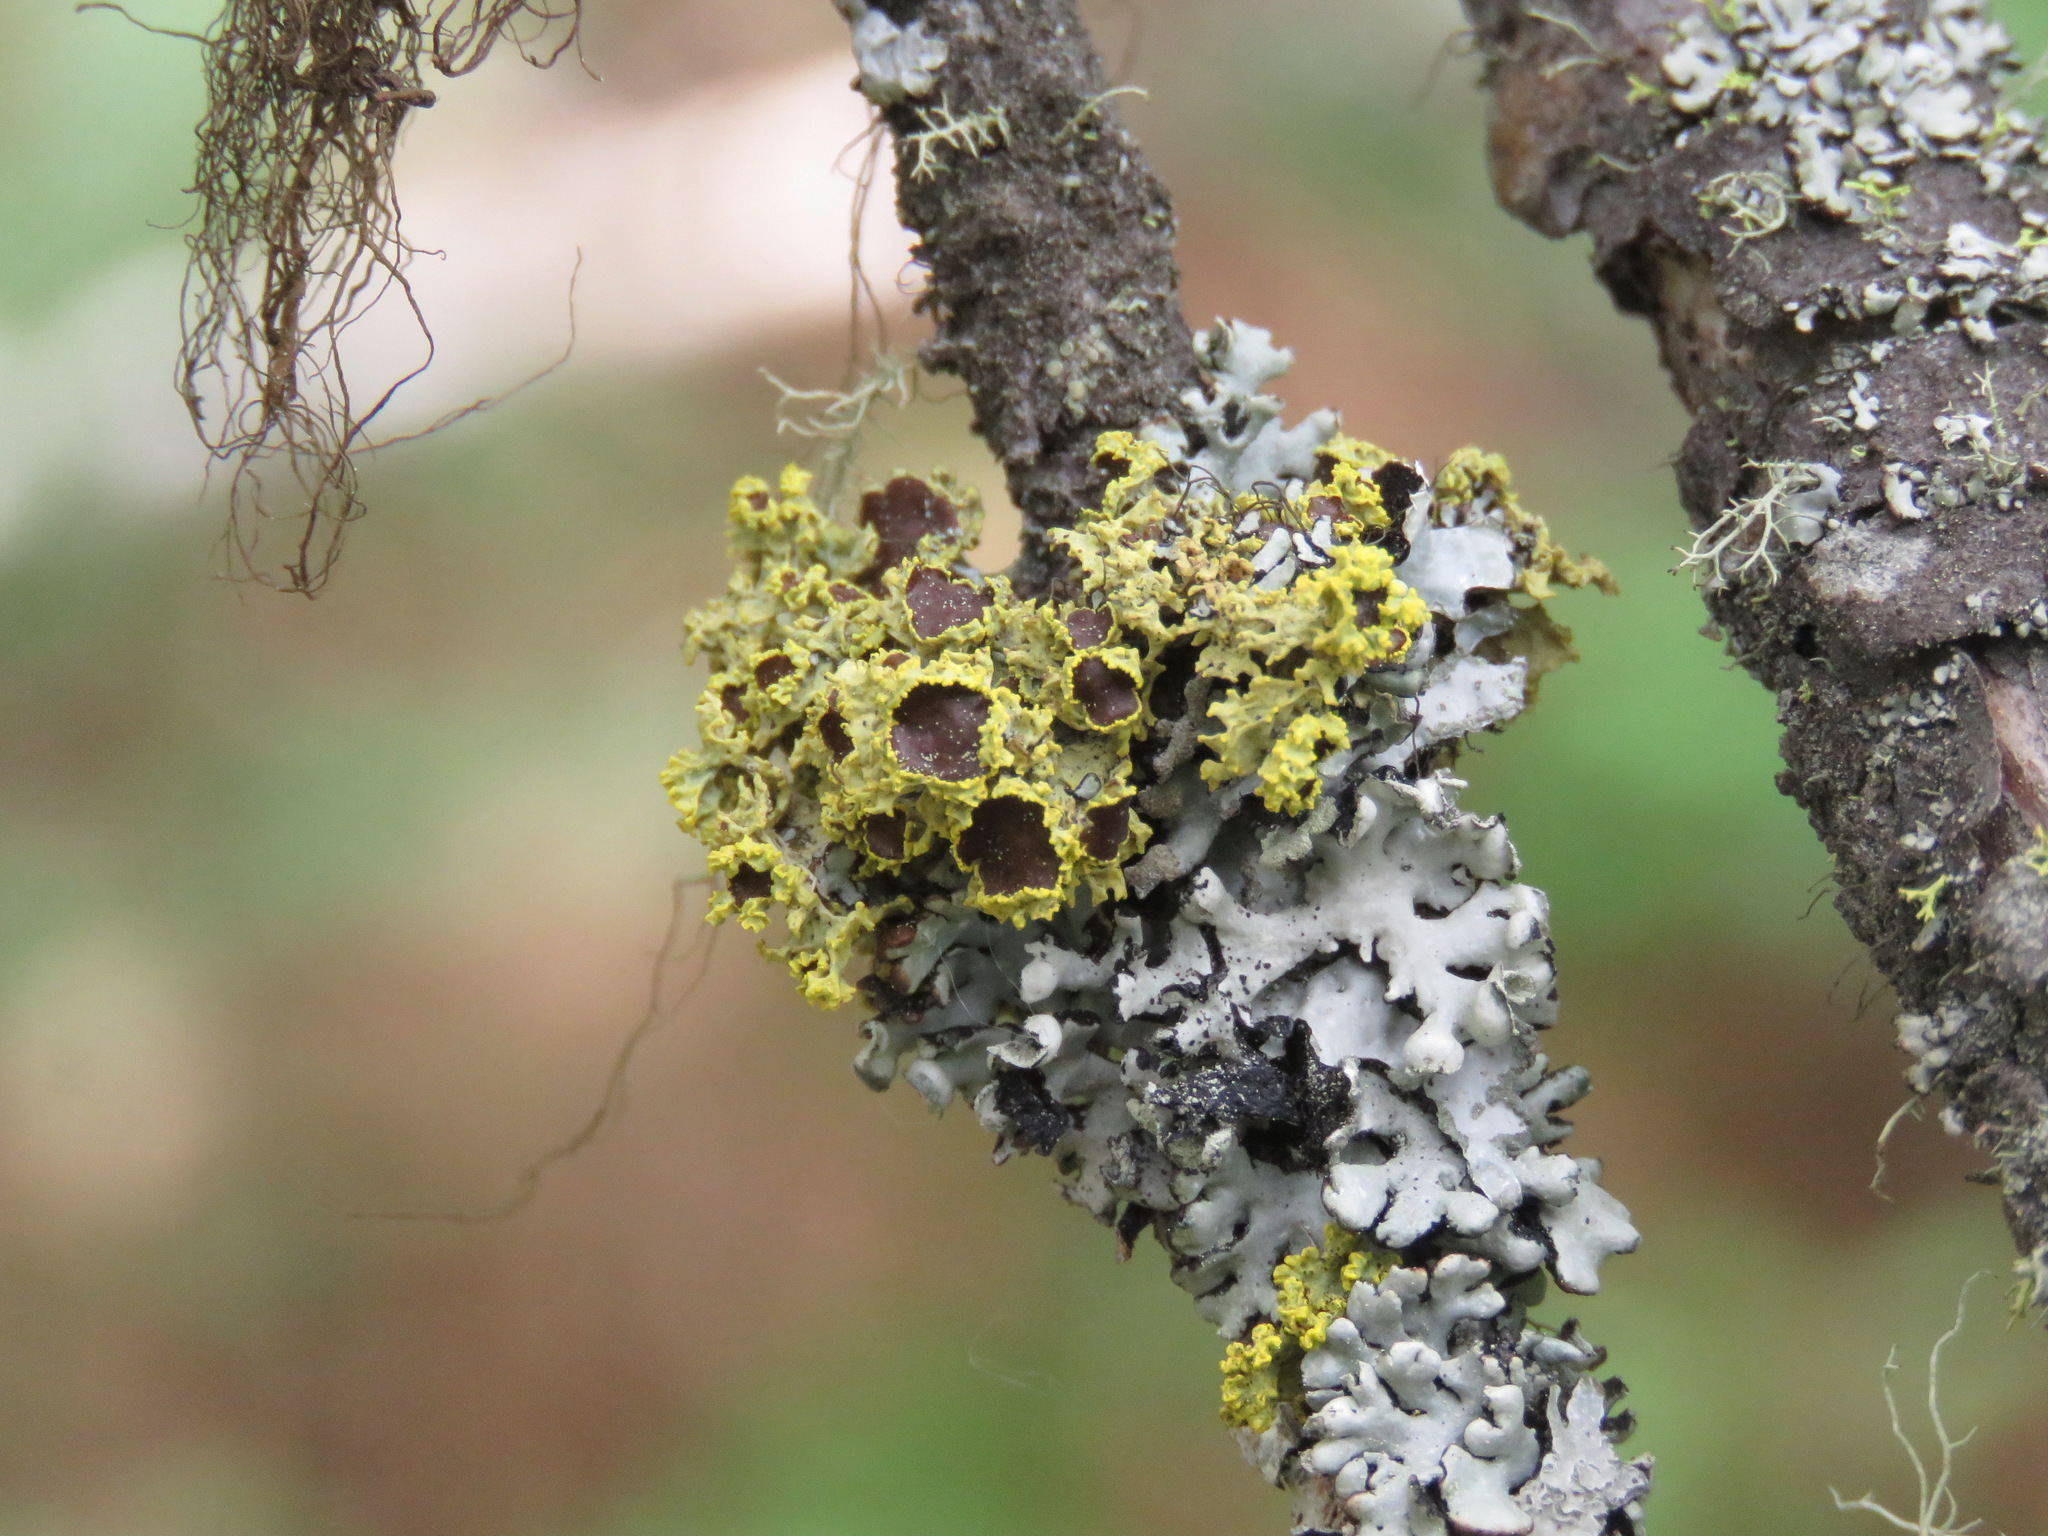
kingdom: Fungi
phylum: Ascomycota
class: Lecanoromycetes
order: Lecanorales
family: Parmeliaceae
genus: Vulpicida
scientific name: Vulpicida canadensis
